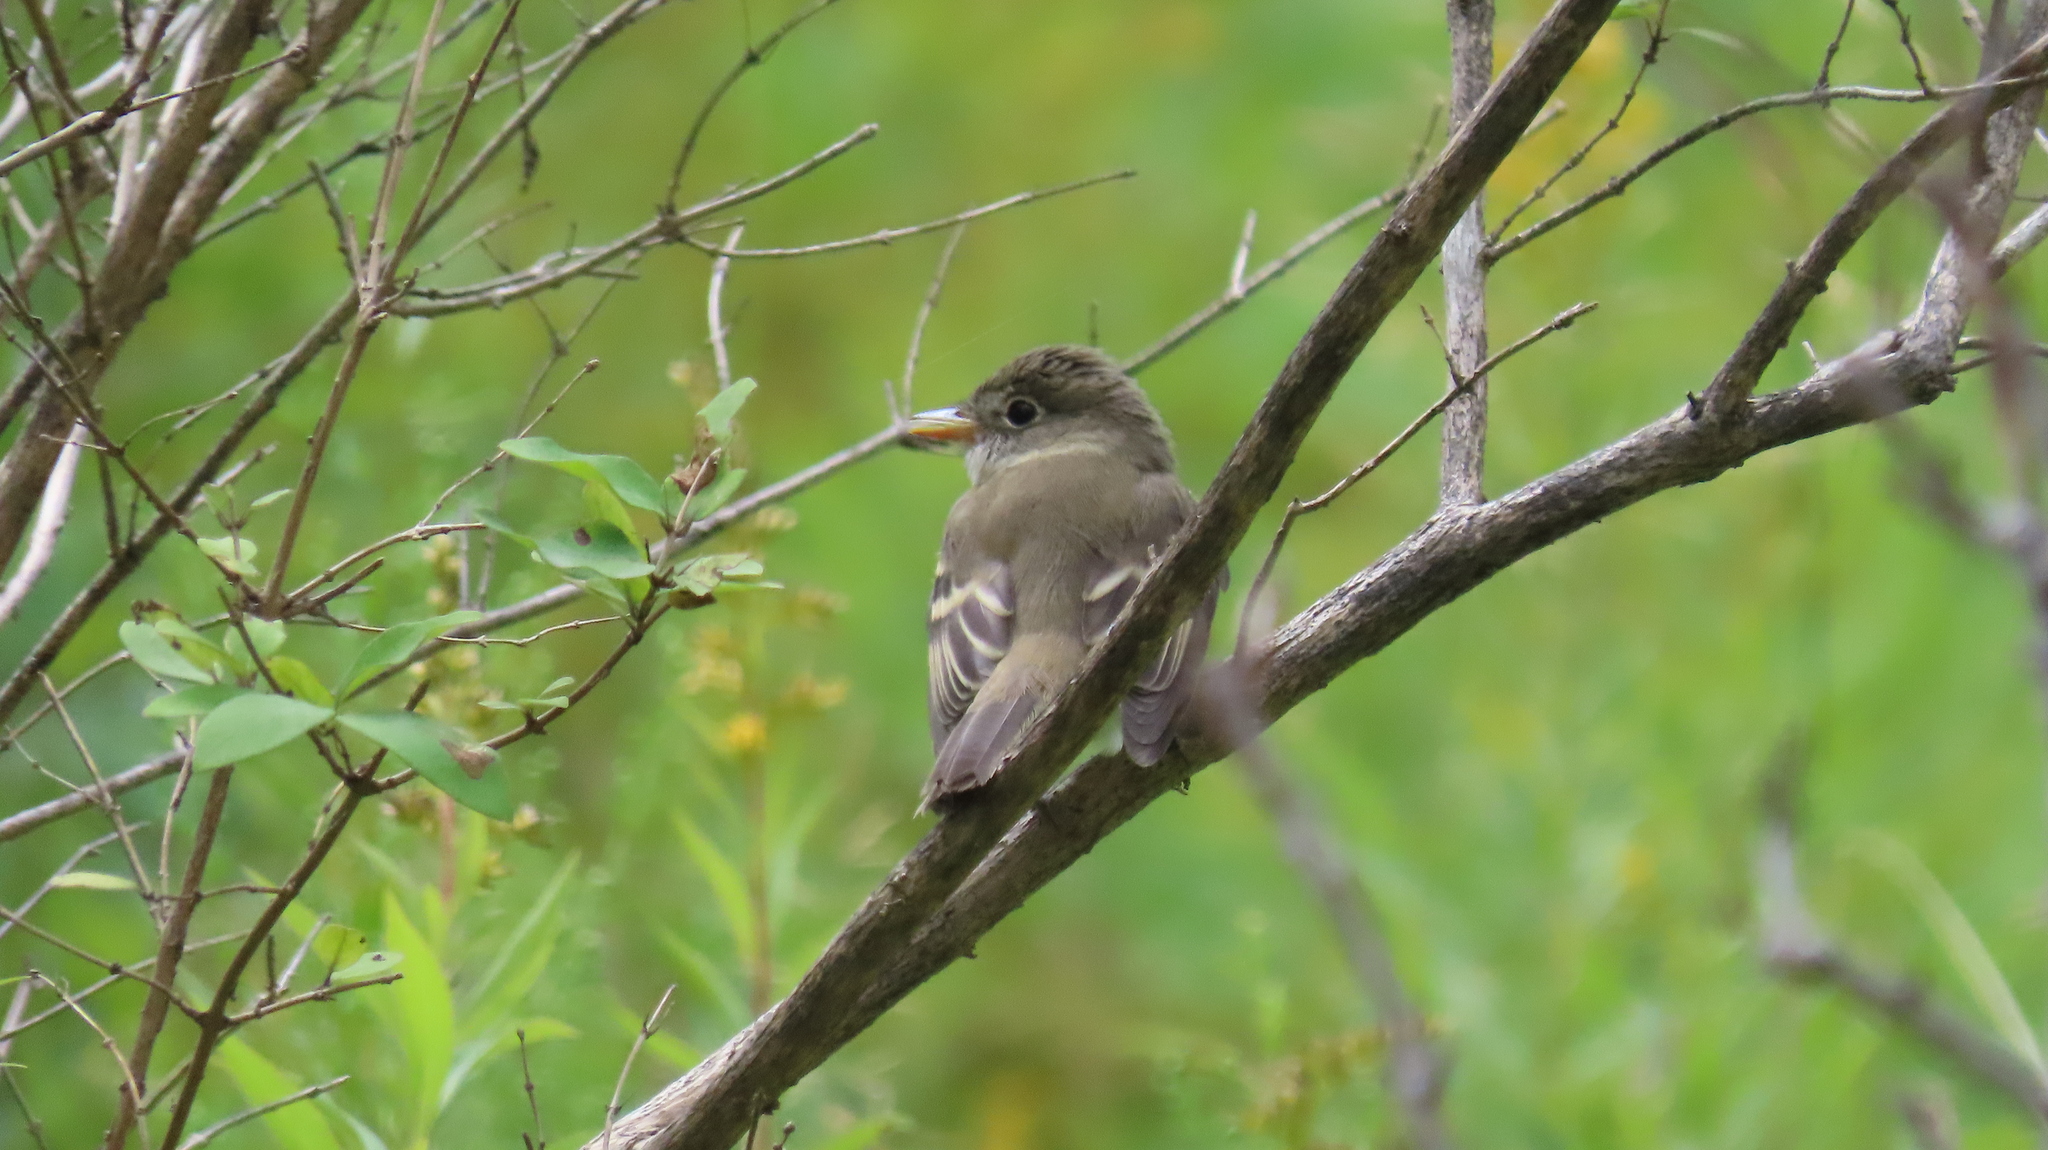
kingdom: Animalia
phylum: Chordata
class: Aves
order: Passeriformes
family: Tyrannidae
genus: Empidonax
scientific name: Empidonax
